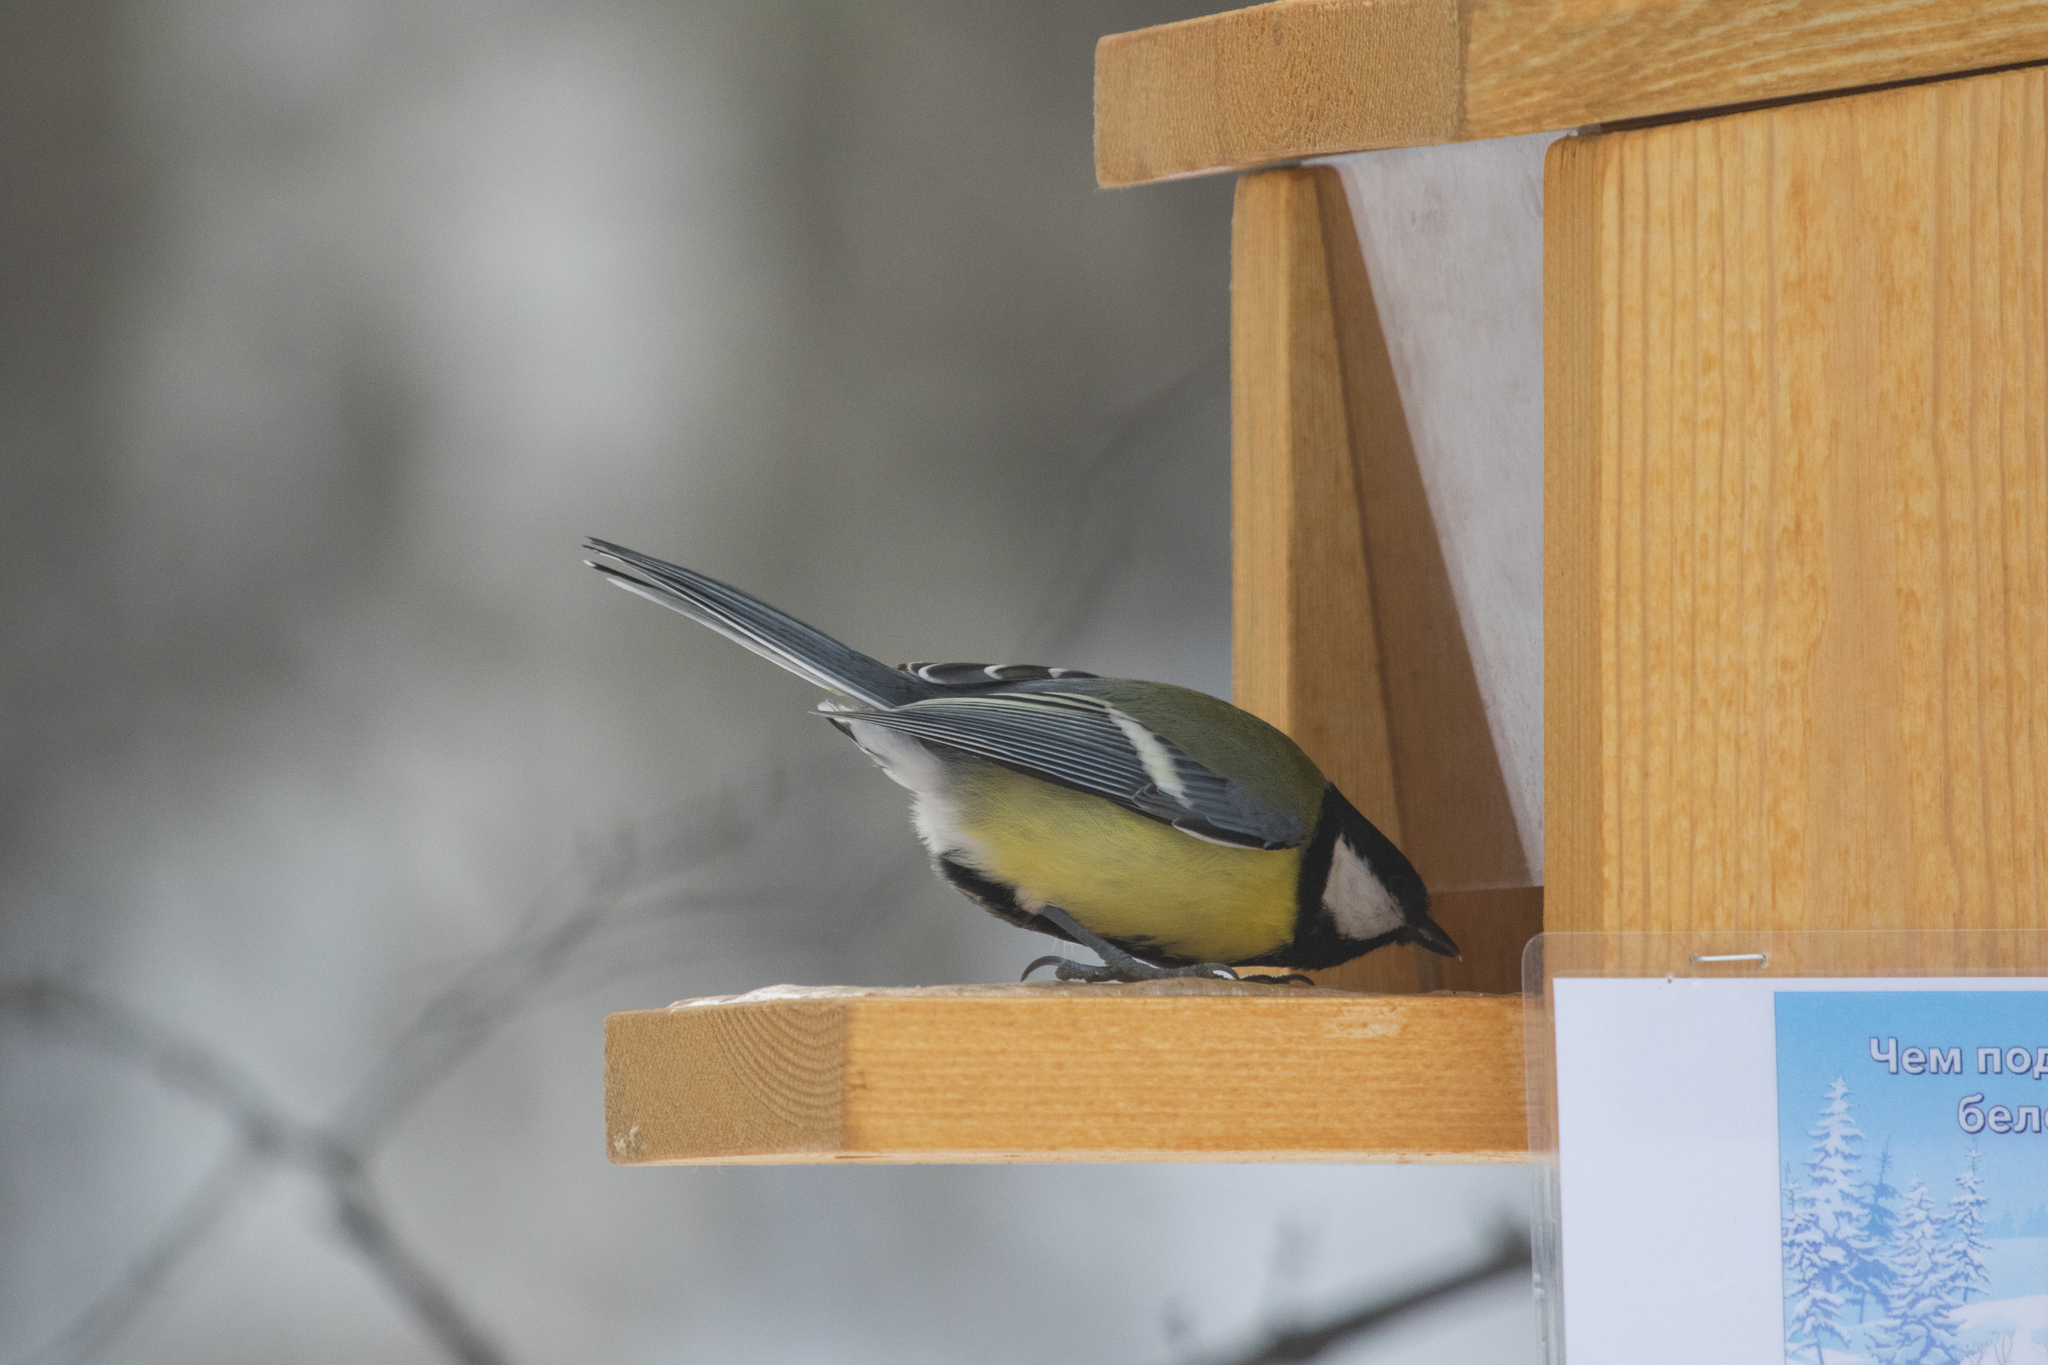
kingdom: Animalia
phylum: Chordata
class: Aves
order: Passeriformes
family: Paridae
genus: Parus
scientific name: Parus major
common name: Great tit
